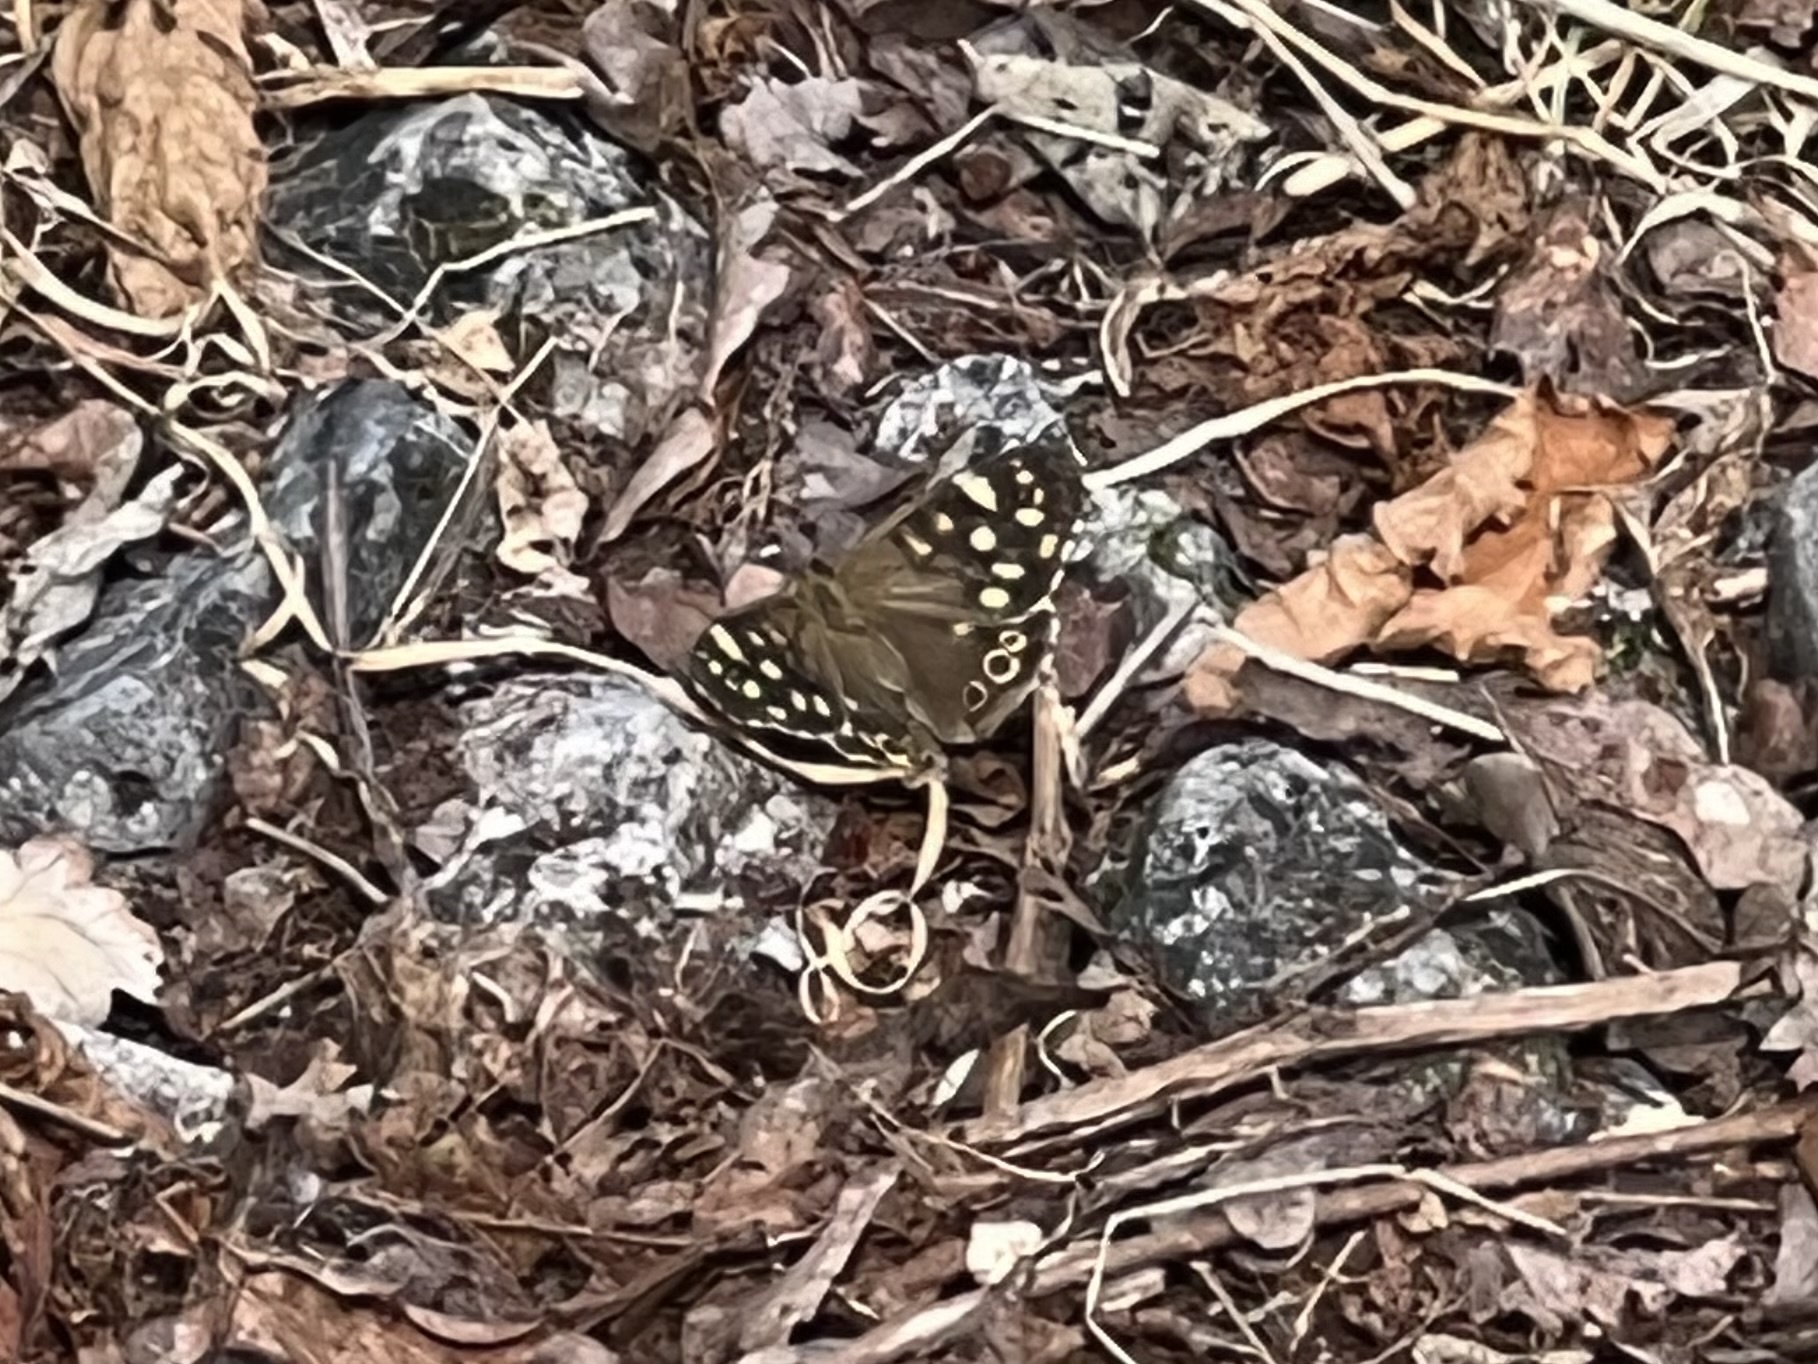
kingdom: Animalia
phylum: Arthropoda
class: Insecta
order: Lepidoptera
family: Nymphalidae
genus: Pararge
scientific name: Pararge aegeria
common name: Speckled wood
